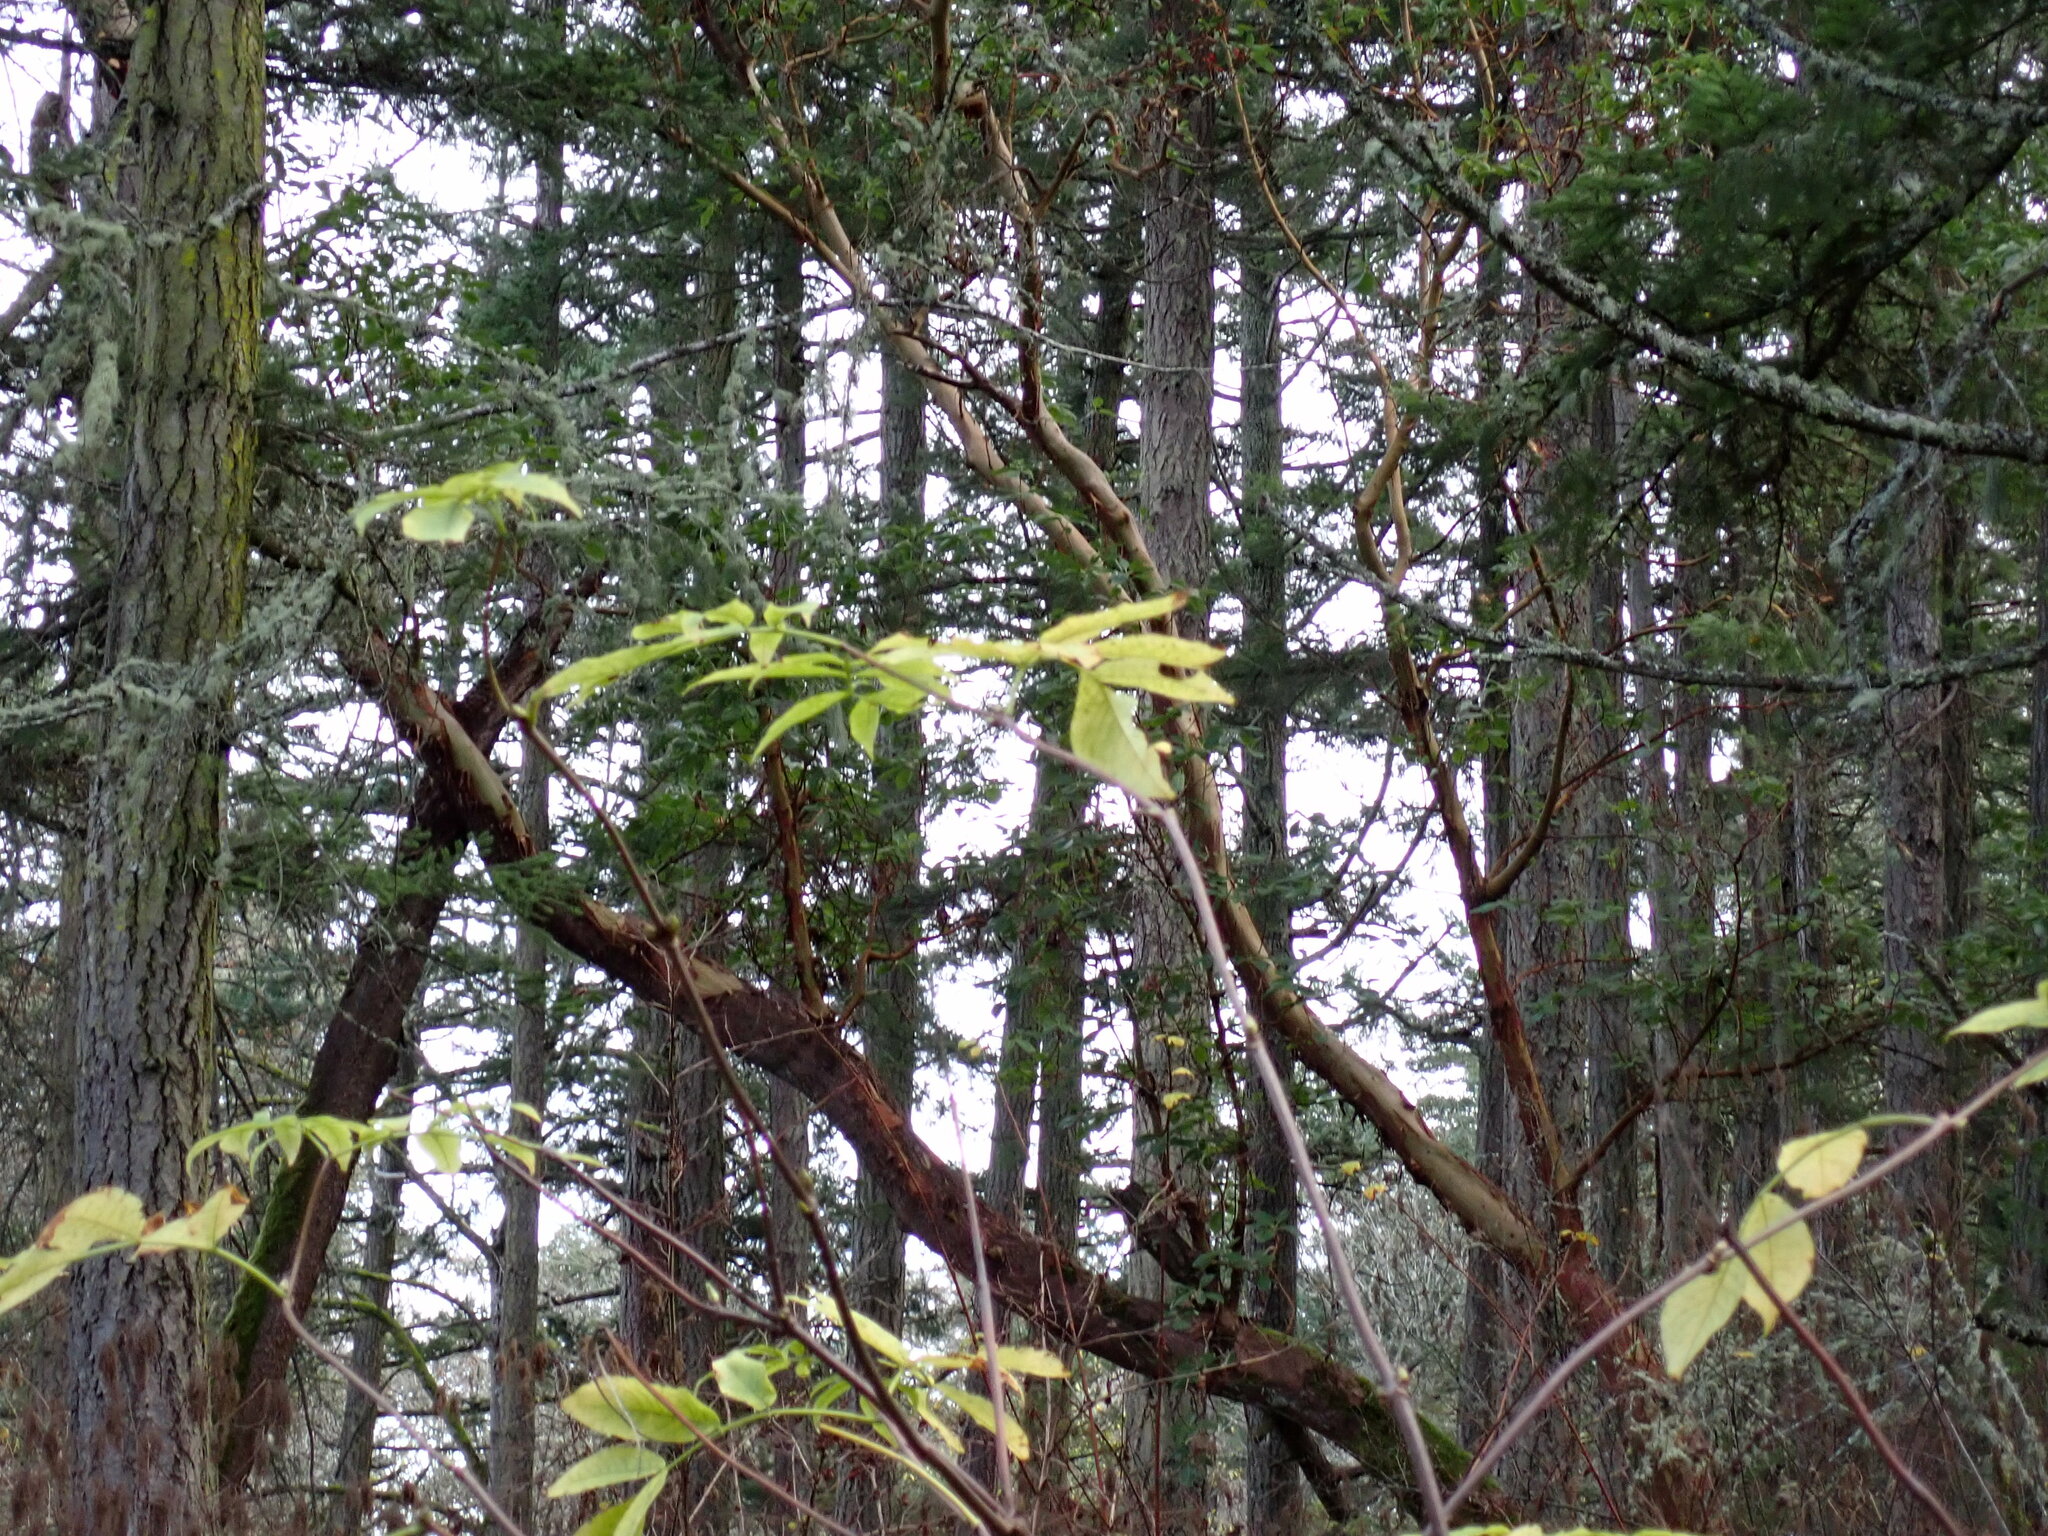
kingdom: Plantae
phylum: Tracheophyta
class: Magnoliopsida
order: Dipsacales
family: Viburnaceae
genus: Sambucus
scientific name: Sambucus racemosa
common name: Red-berried elder
